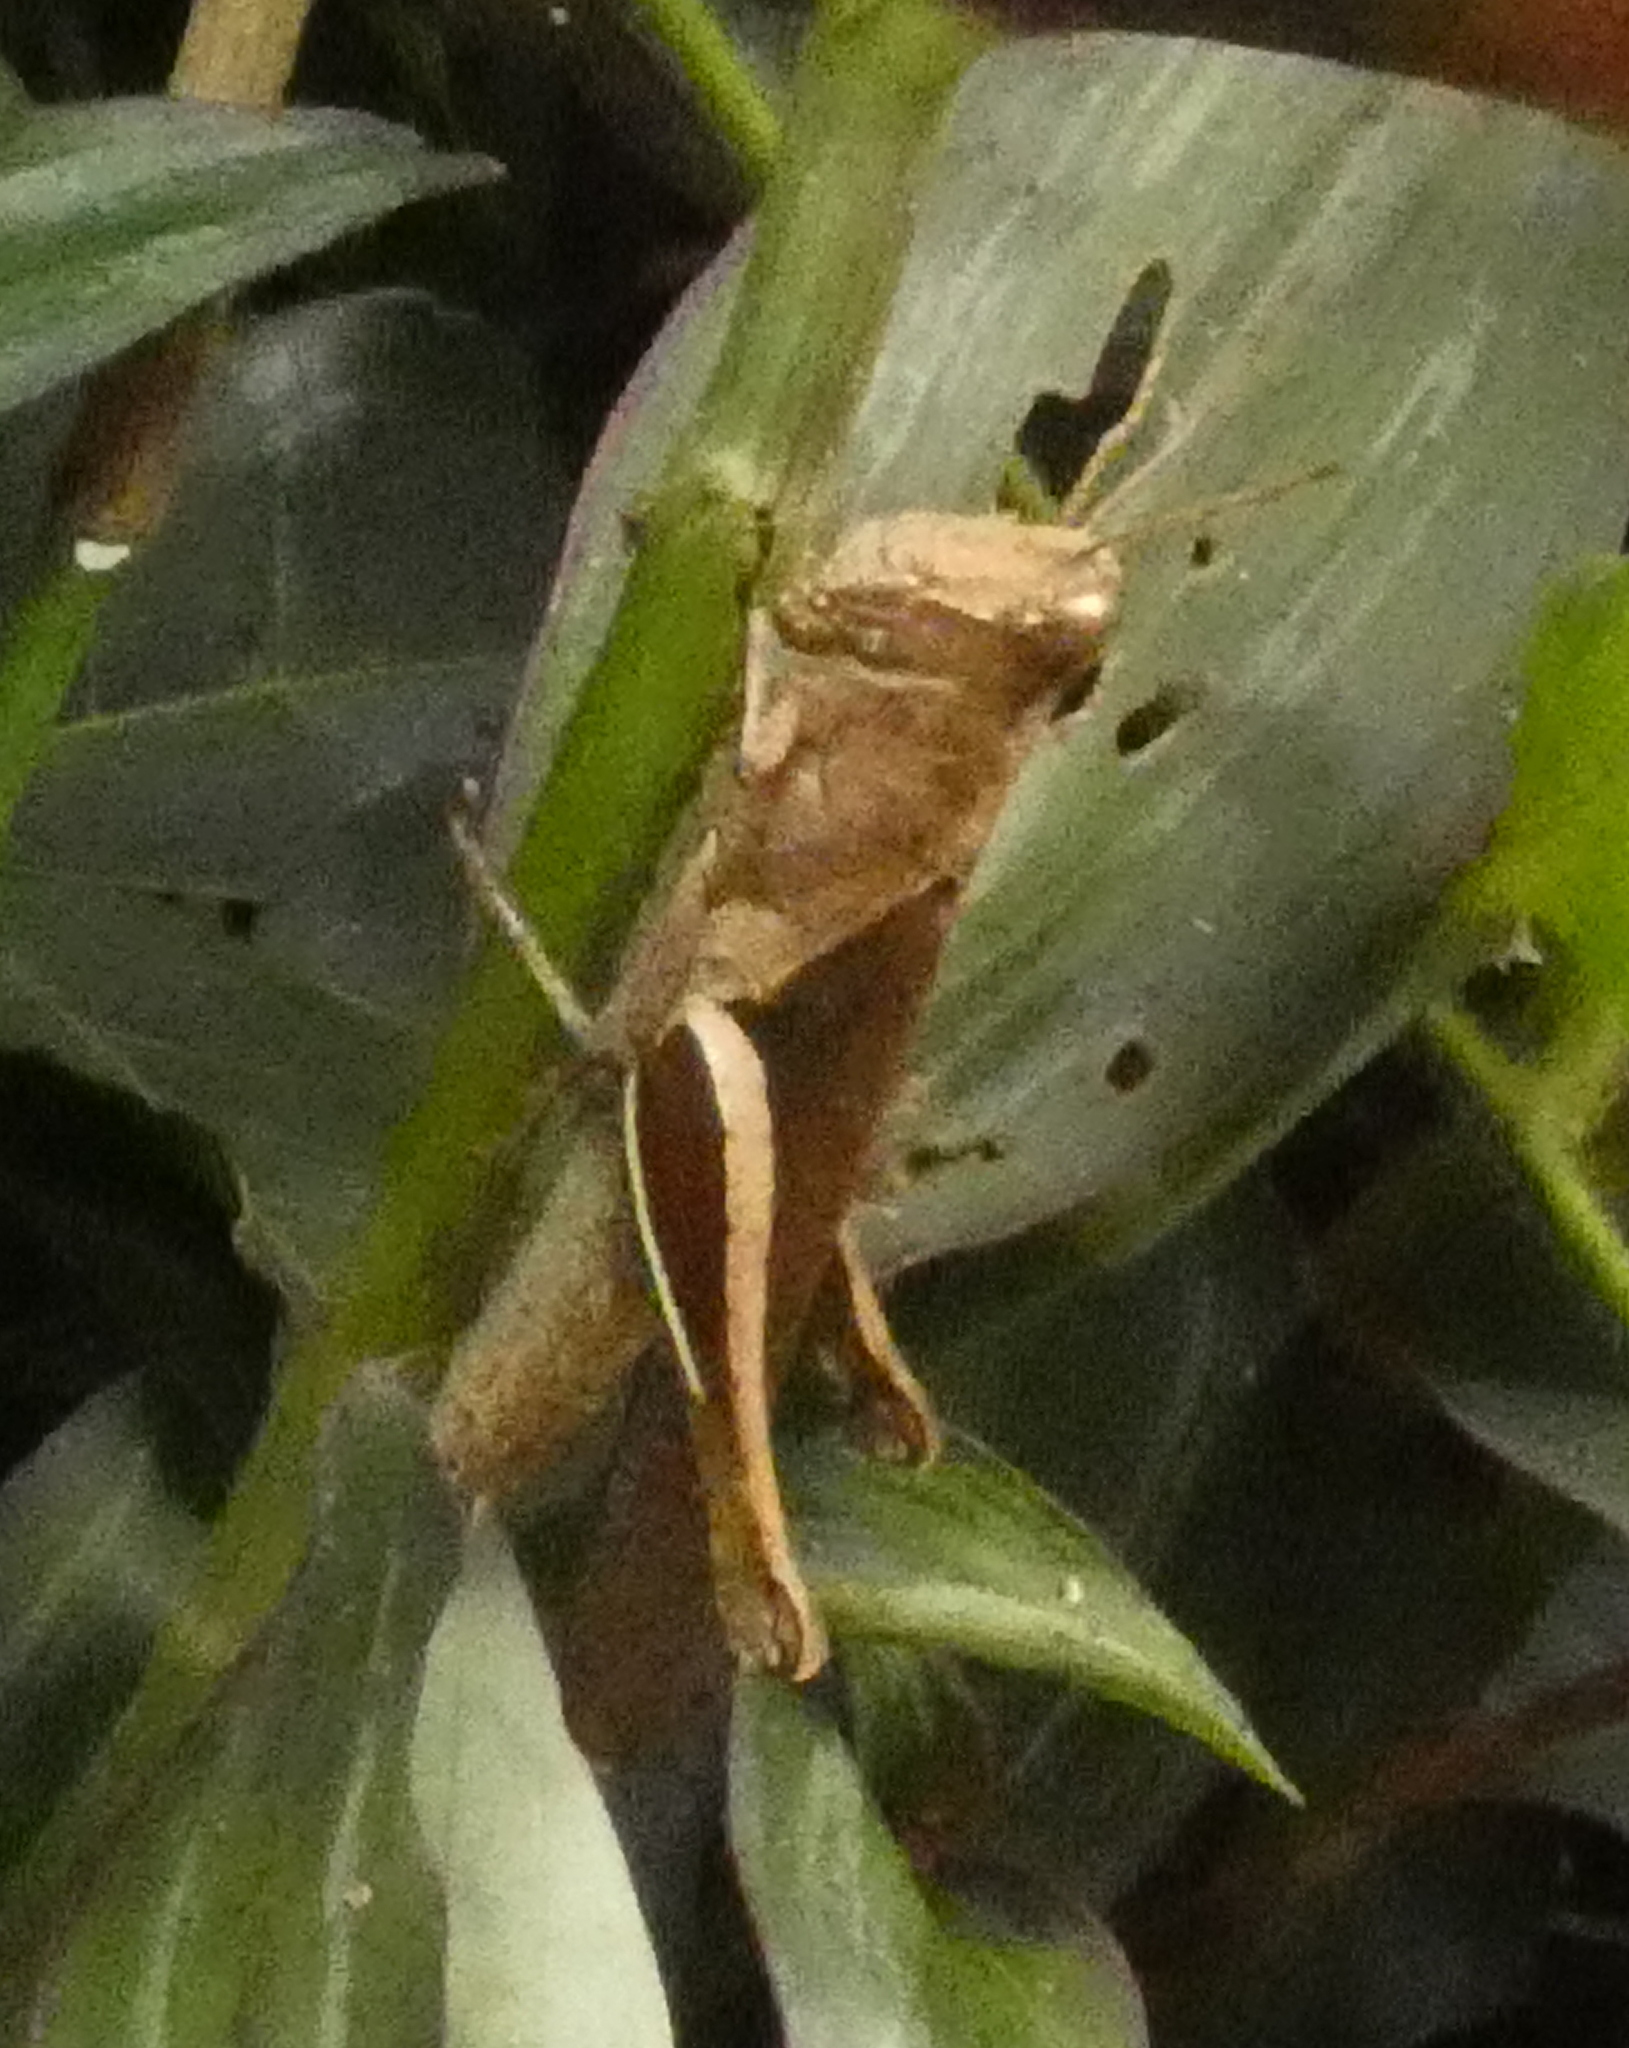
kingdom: Animalia
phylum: Arthropoda
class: Insecta
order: Orthoptera
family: Acrididae
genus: Abracris
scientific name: Abracris flavolineata
